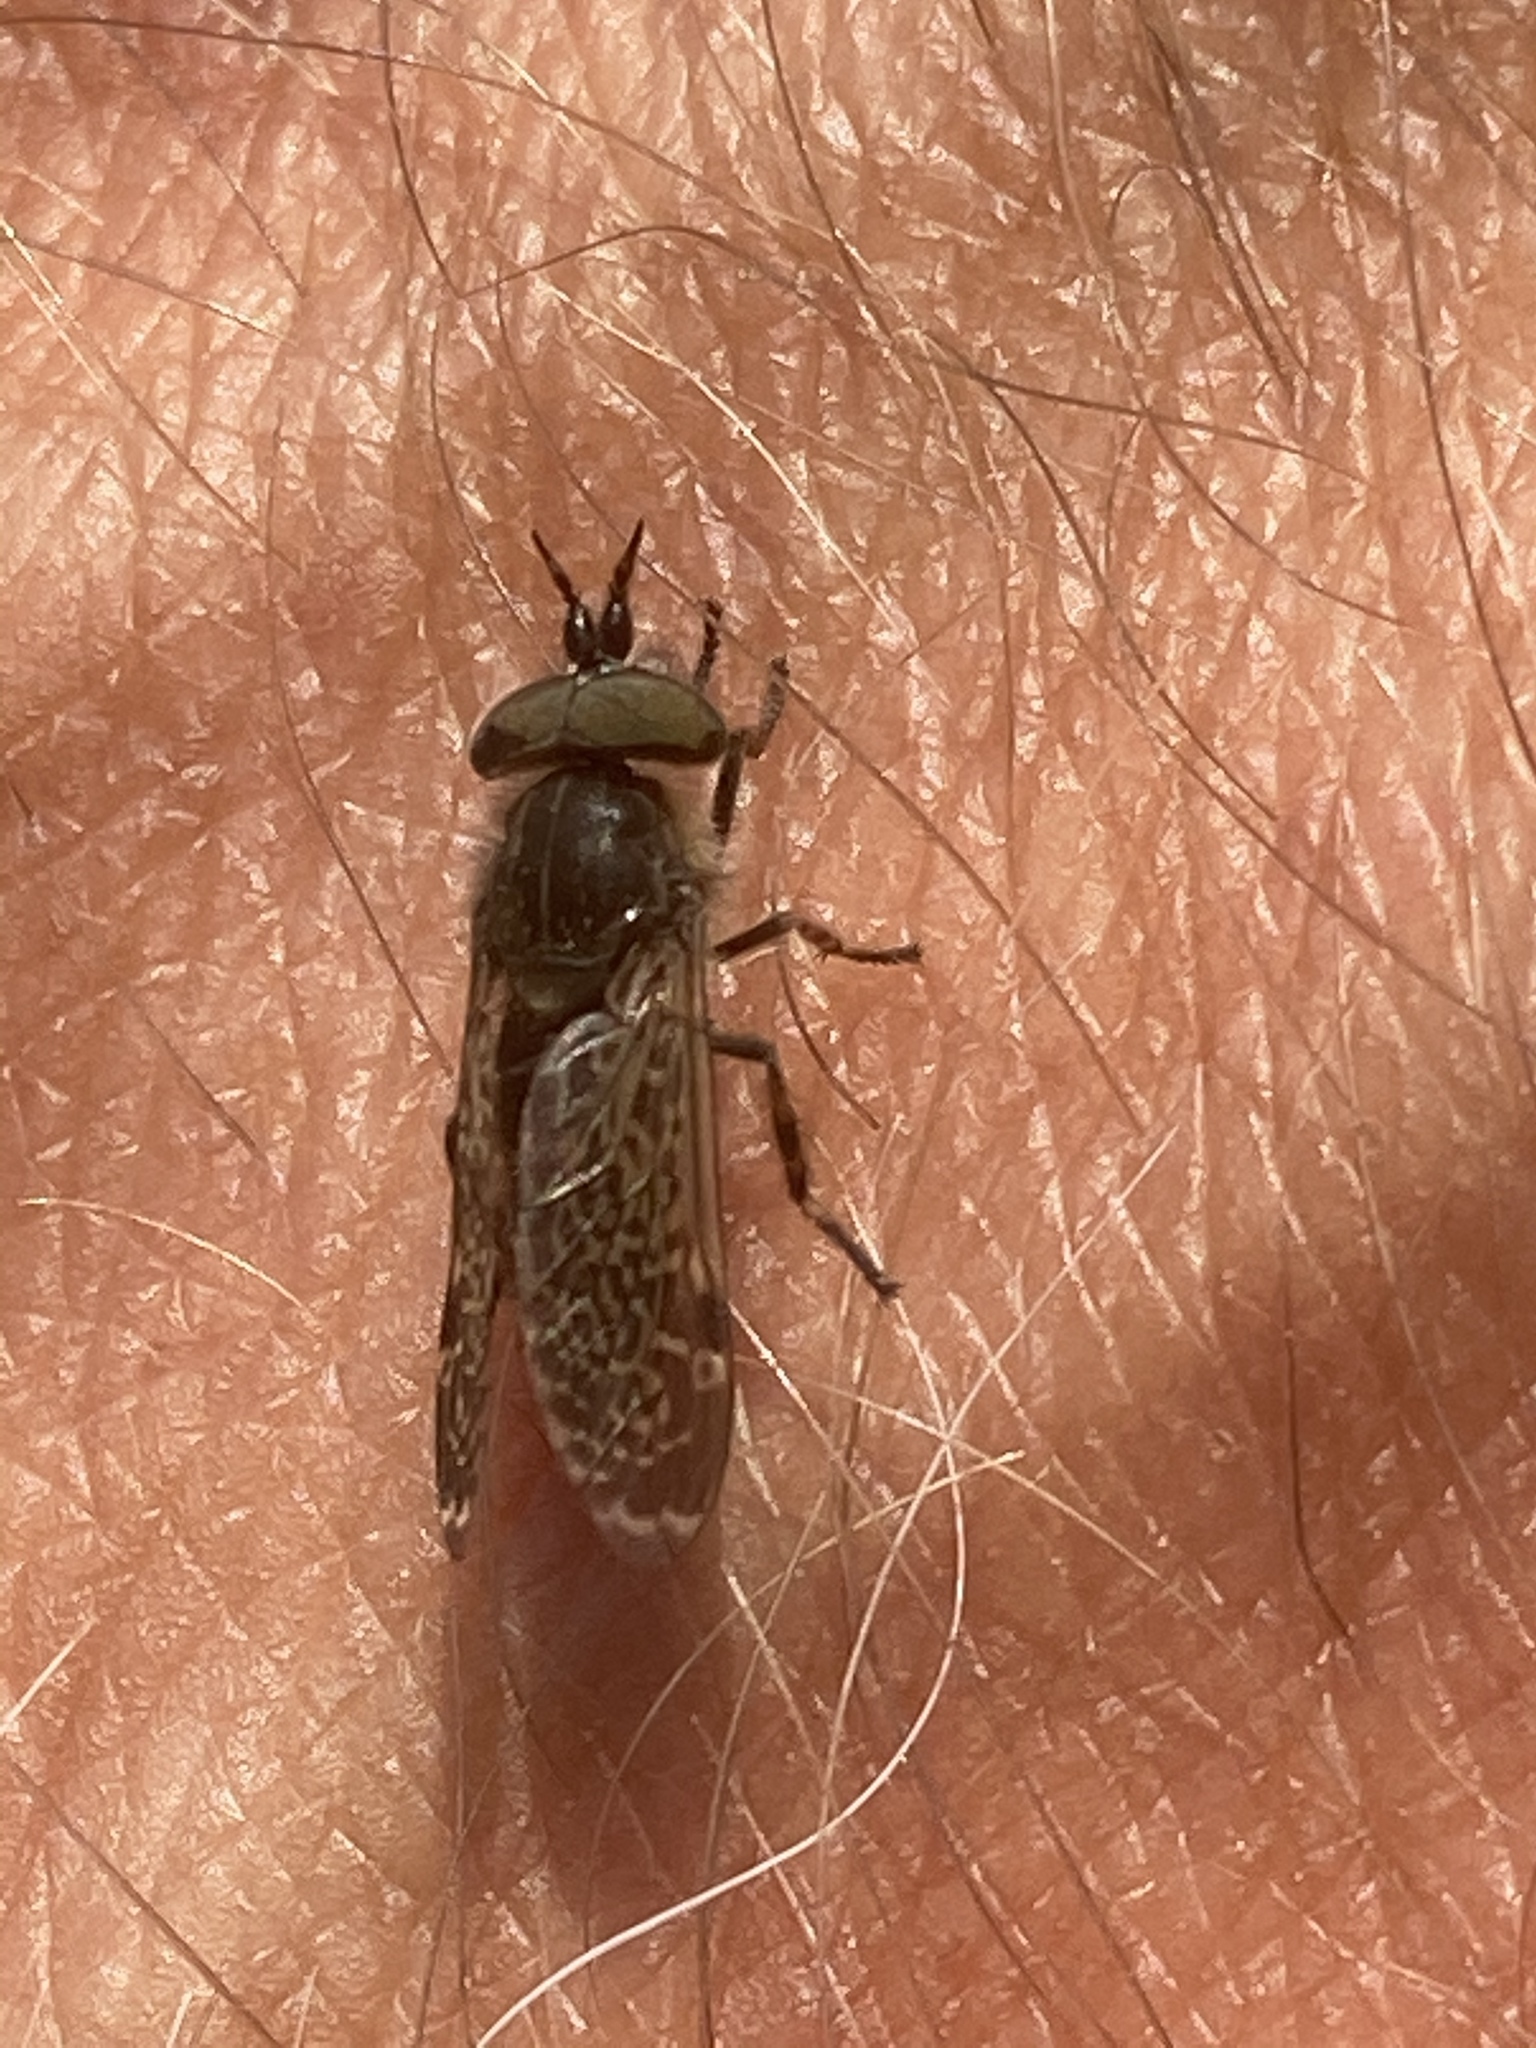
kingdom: Animalia
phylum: Arthropoda
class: Insecta
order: Diptera
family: Tabanidae
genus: Haematopota
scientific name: Haematopota pluvialis
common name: Common horse fly
